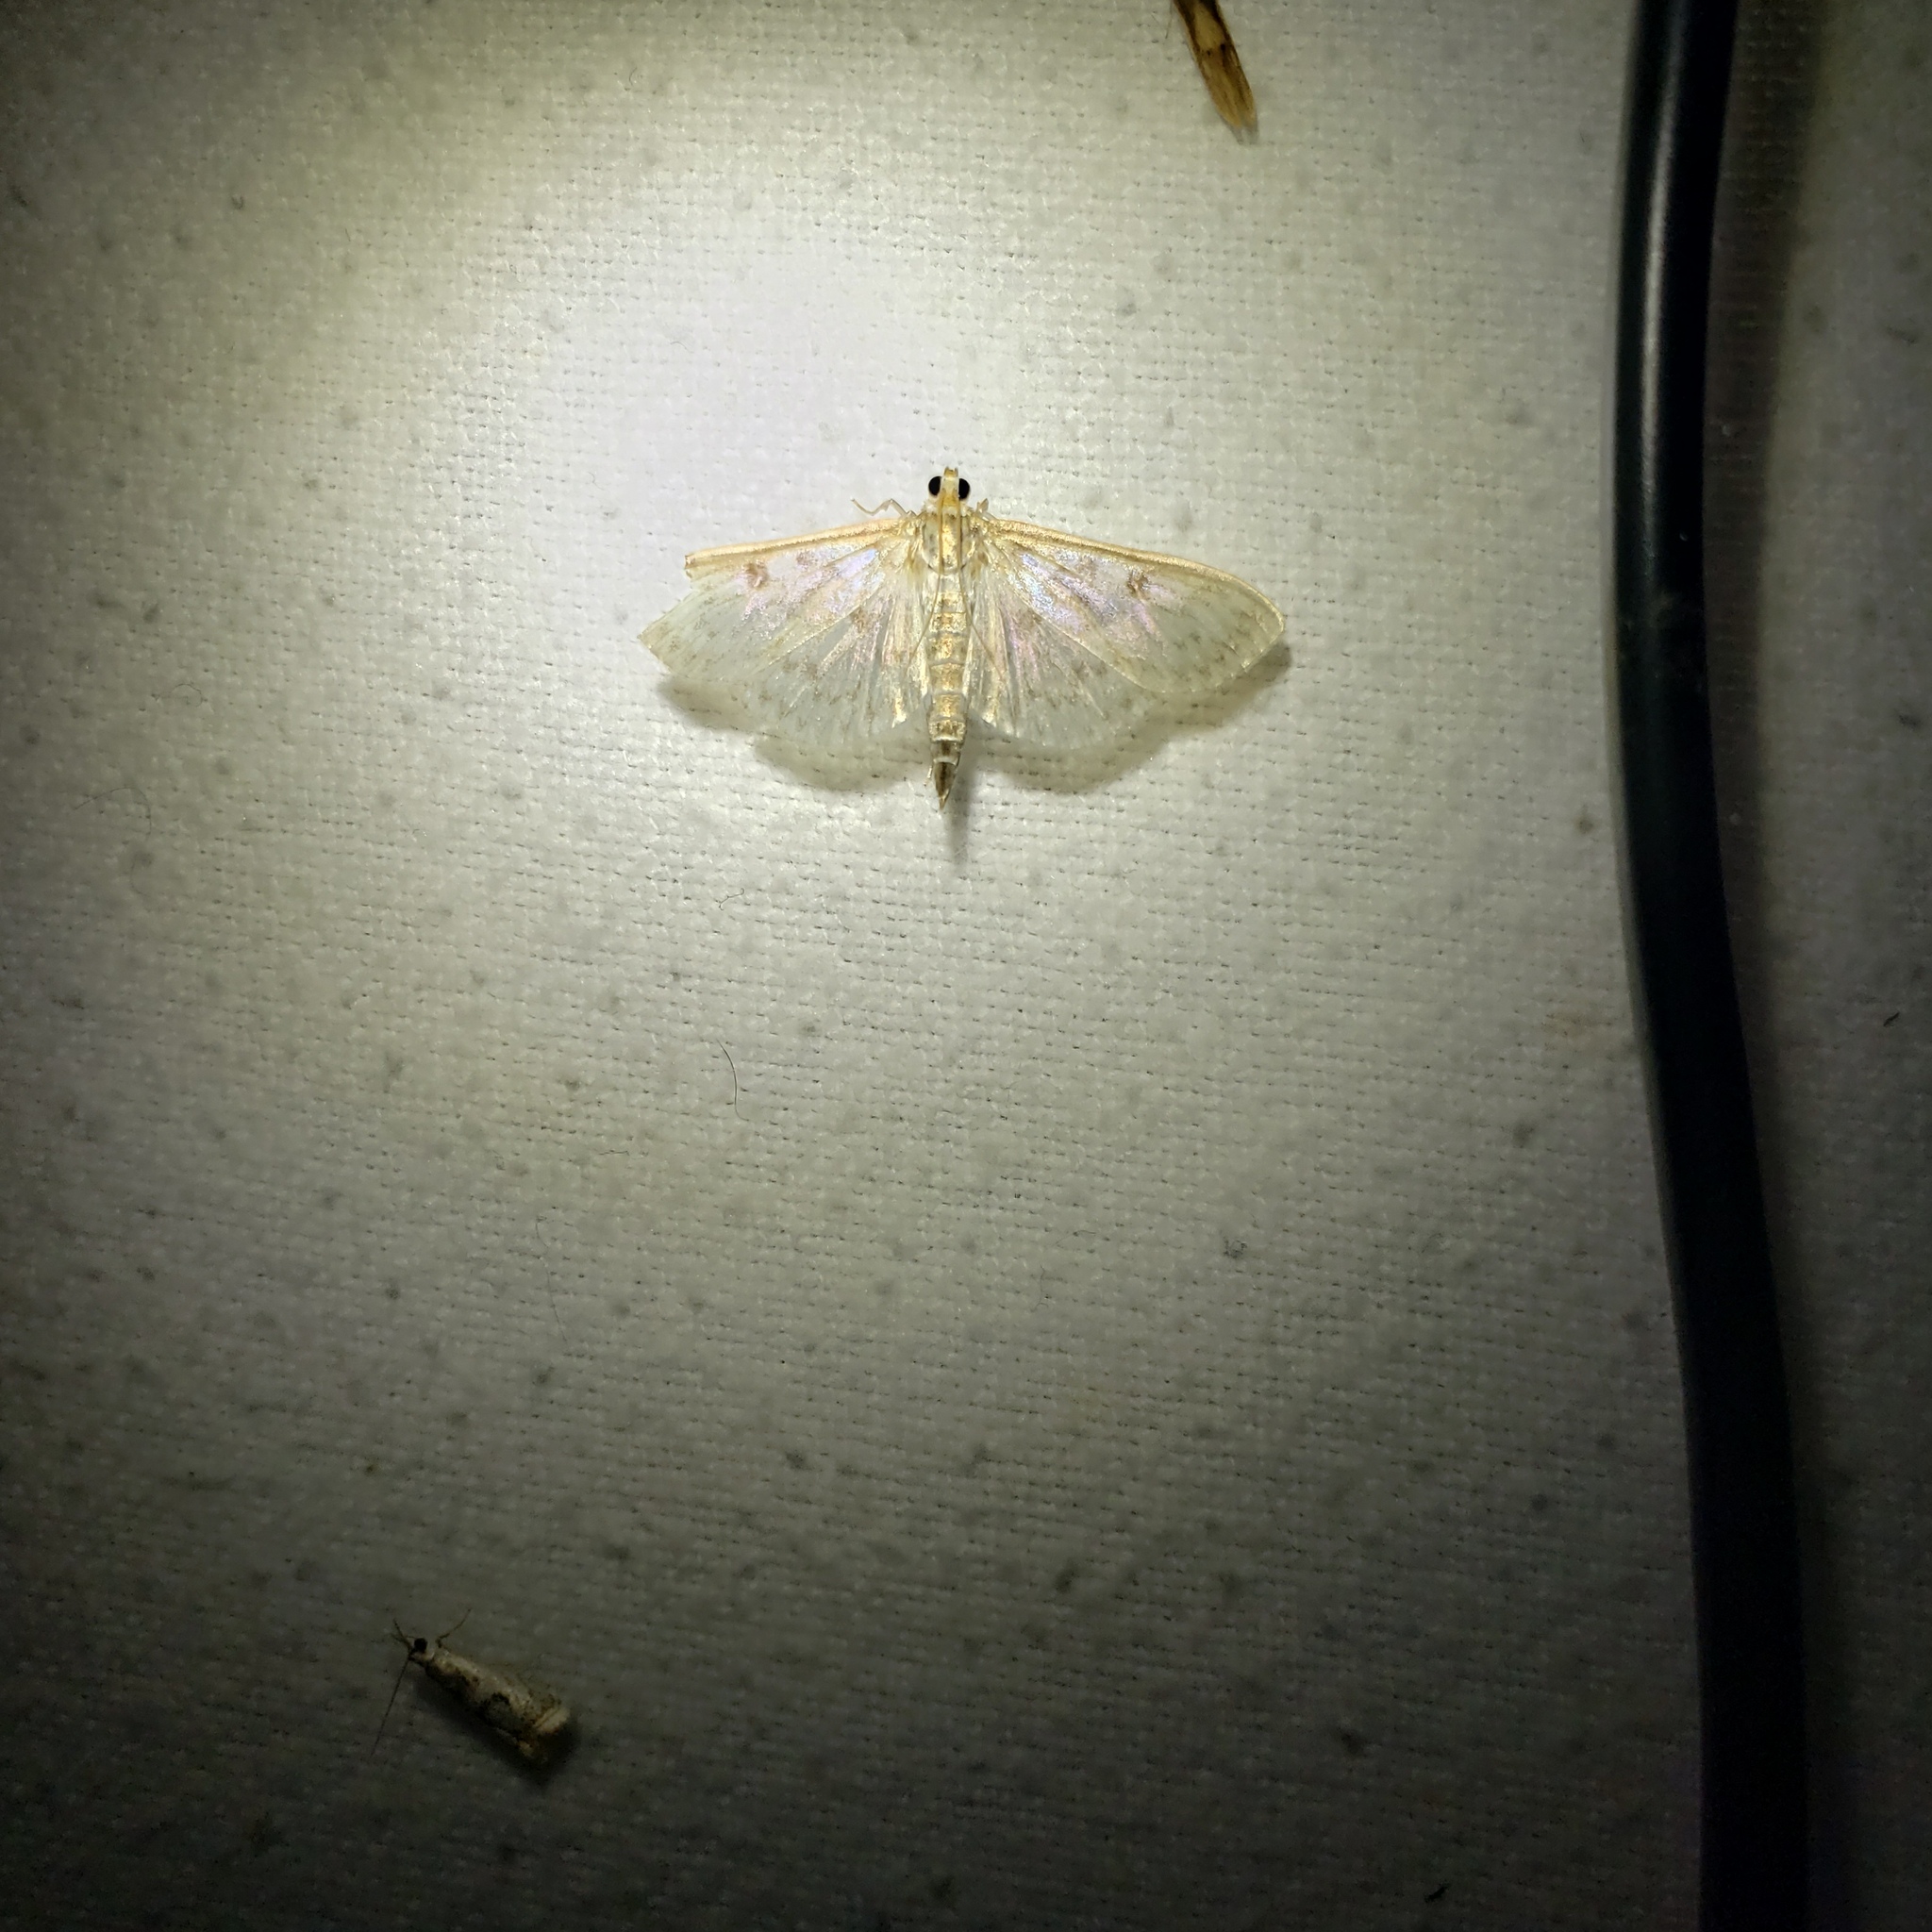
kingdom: Animalia
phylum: Arthropoda
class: Insecta
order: Lepidoptera
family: Crambidae
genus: Herpetogramma
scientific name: Herpetogramma aquilonalis
